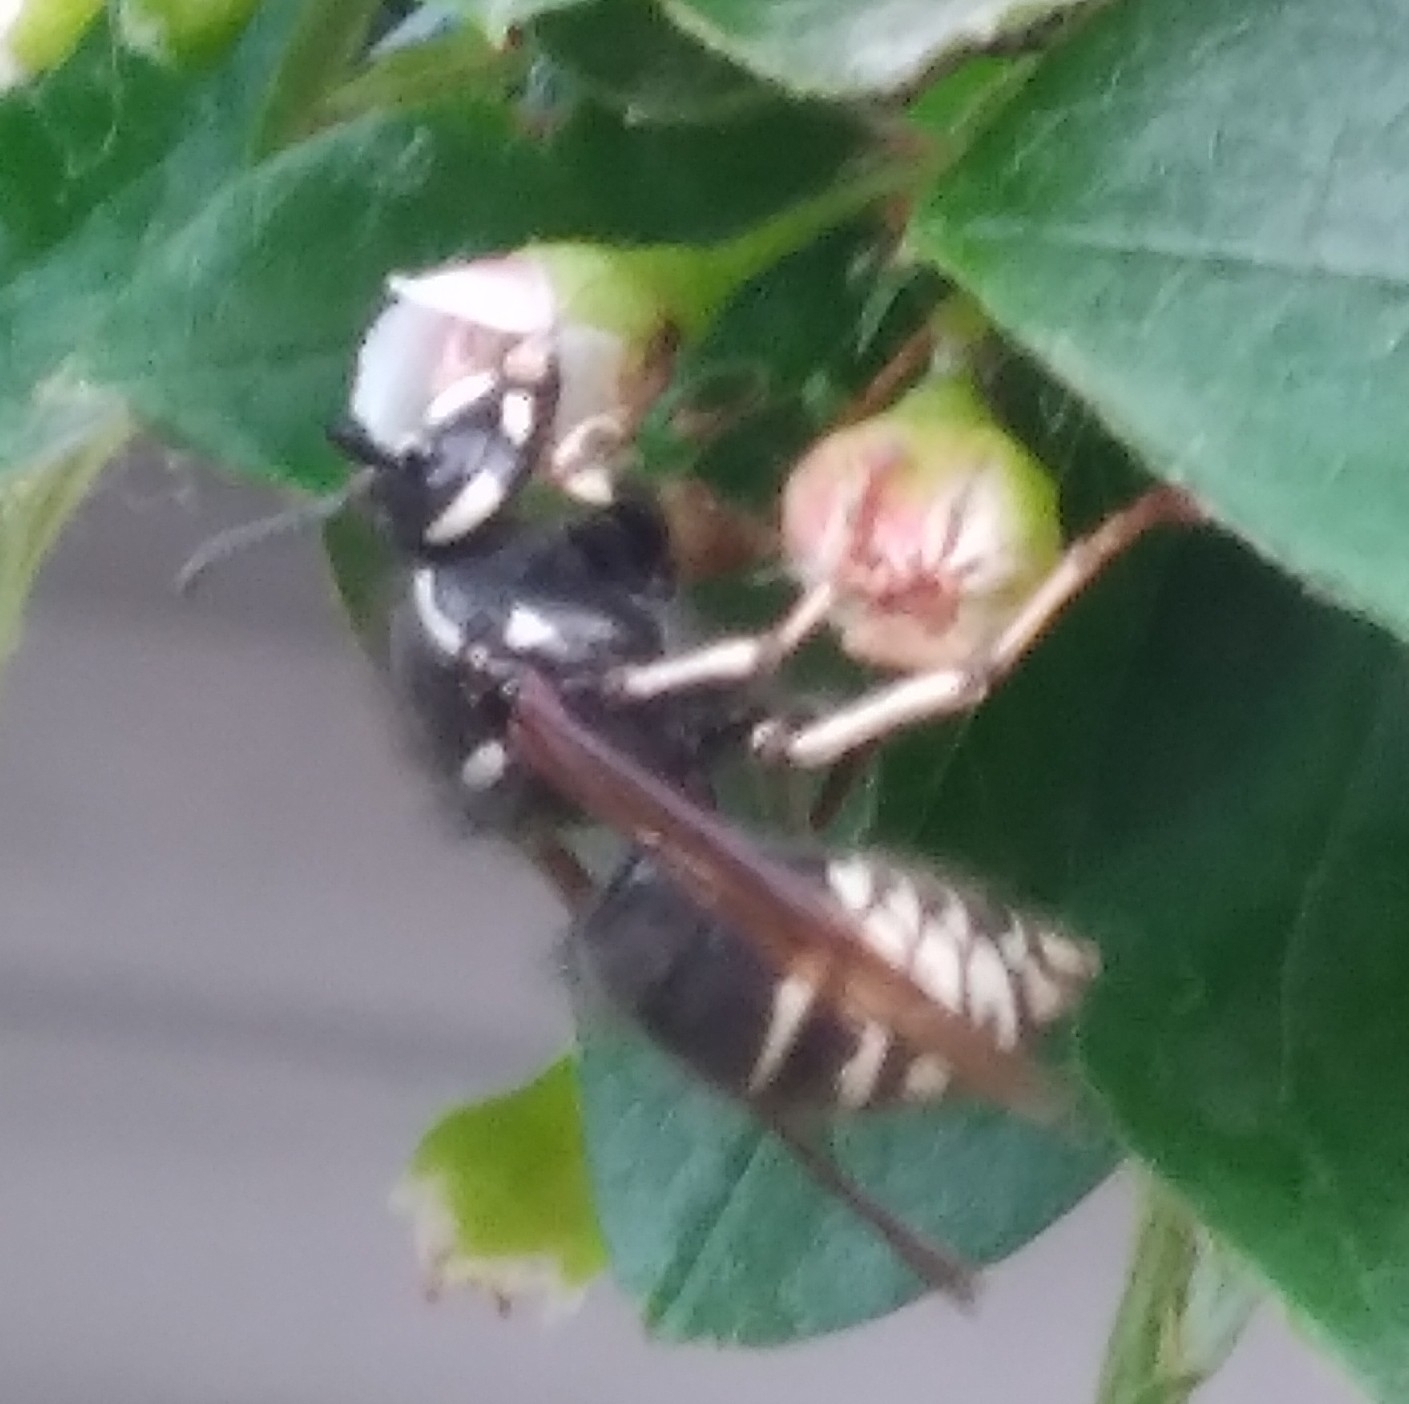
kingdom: Animalia
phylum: Arthropoda
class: Insecta
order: Hymenoptera
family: Vespidae
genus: Vespula
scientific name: Vespula consobrina
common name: Blackjacket
